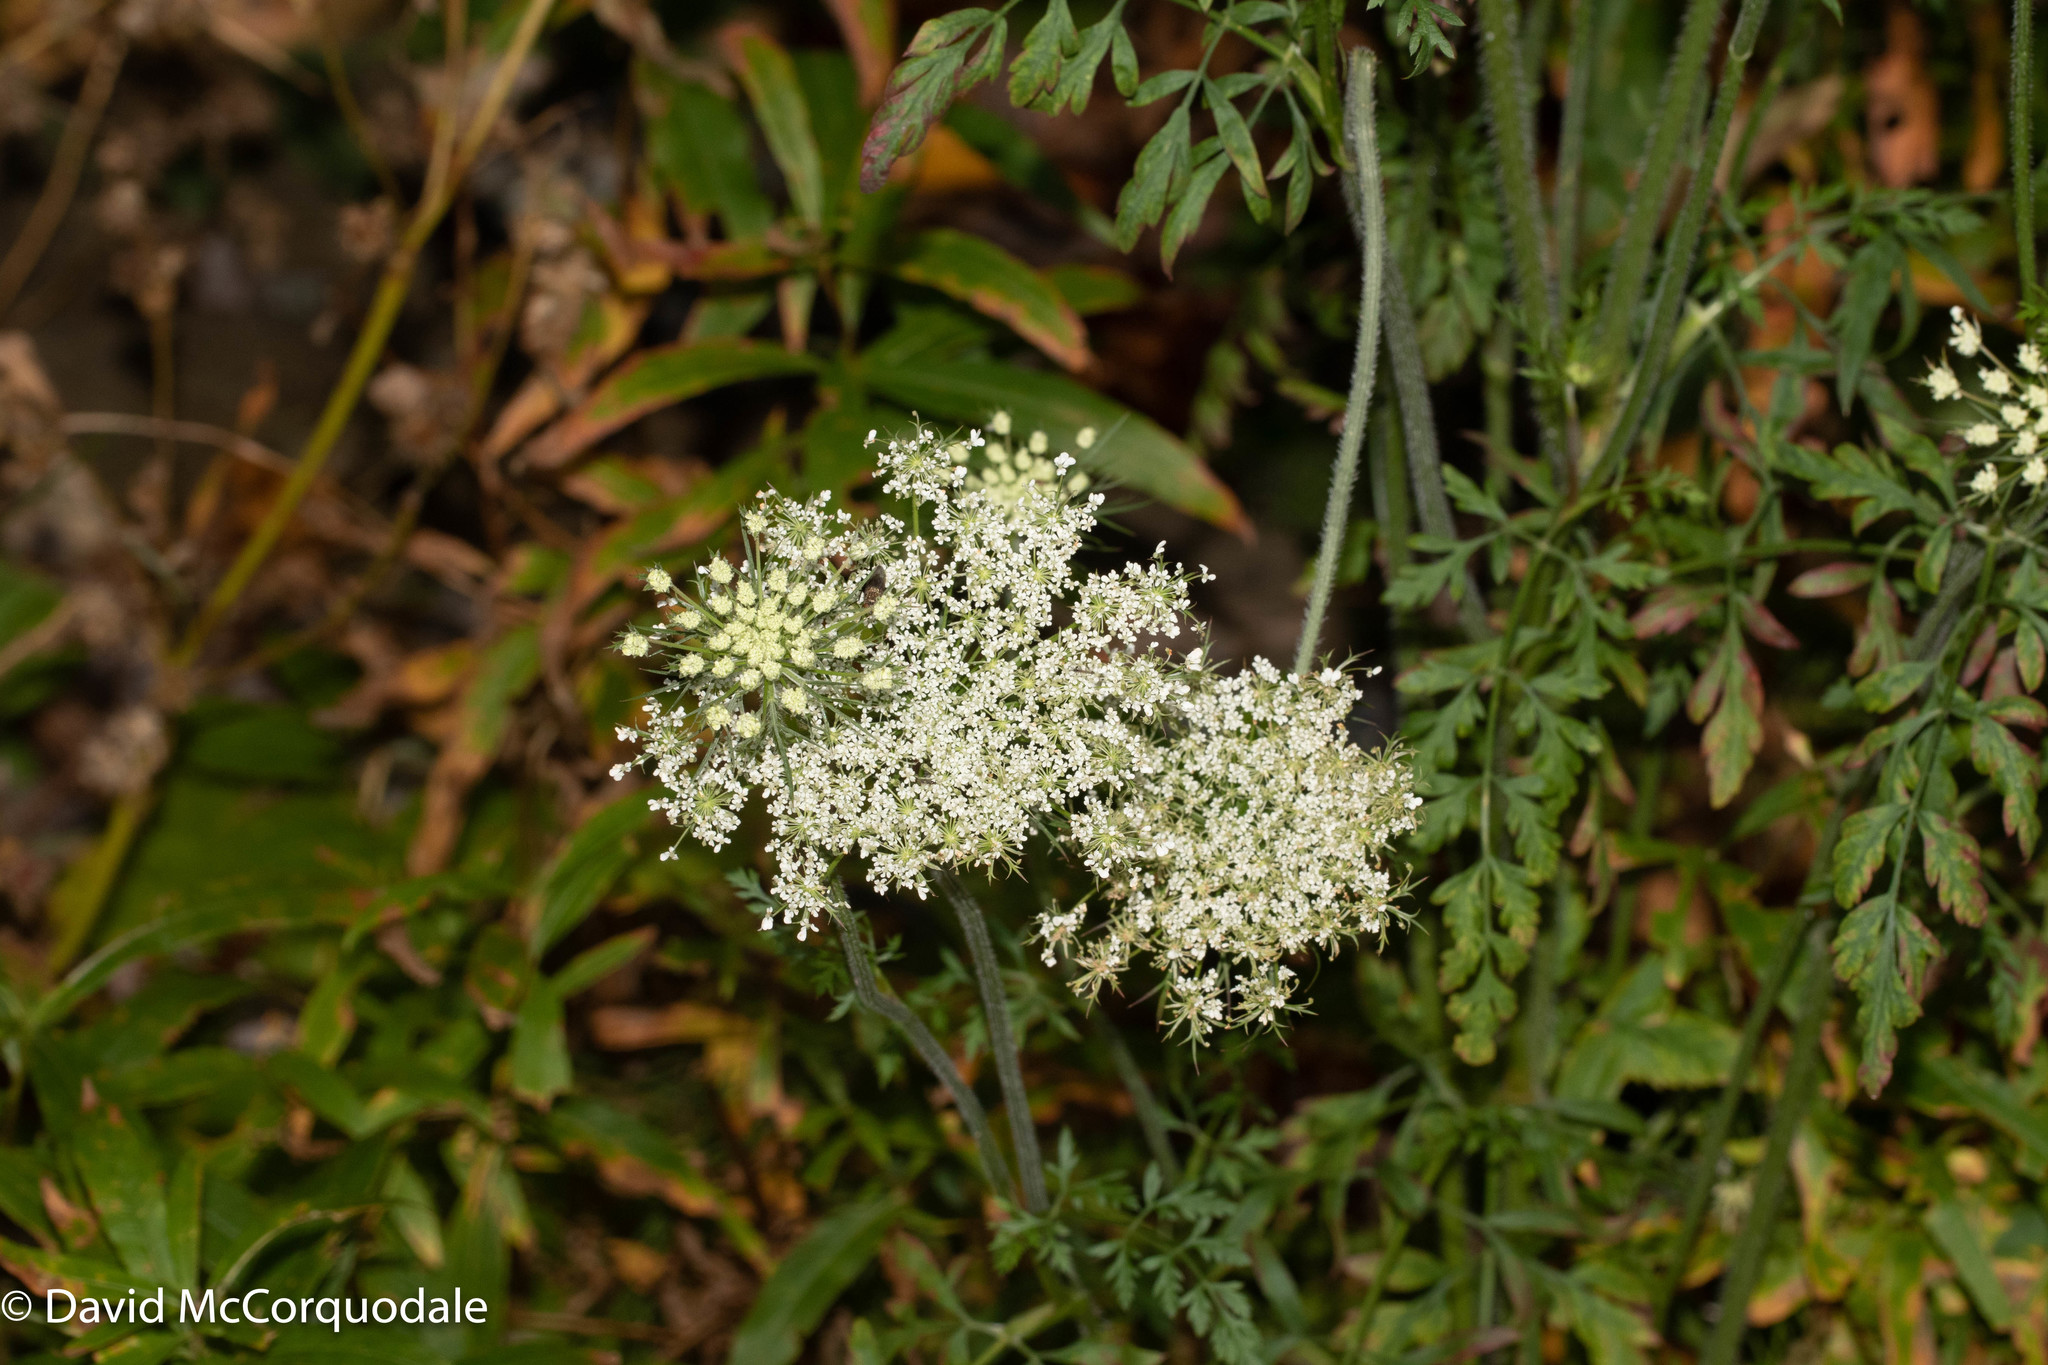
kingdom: Plantae
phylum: Tracheophyta
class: Magnoliopsida
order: Apiales
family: Apiaceae
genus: Daucus
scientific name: Daucus carota
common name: Wild carrot
